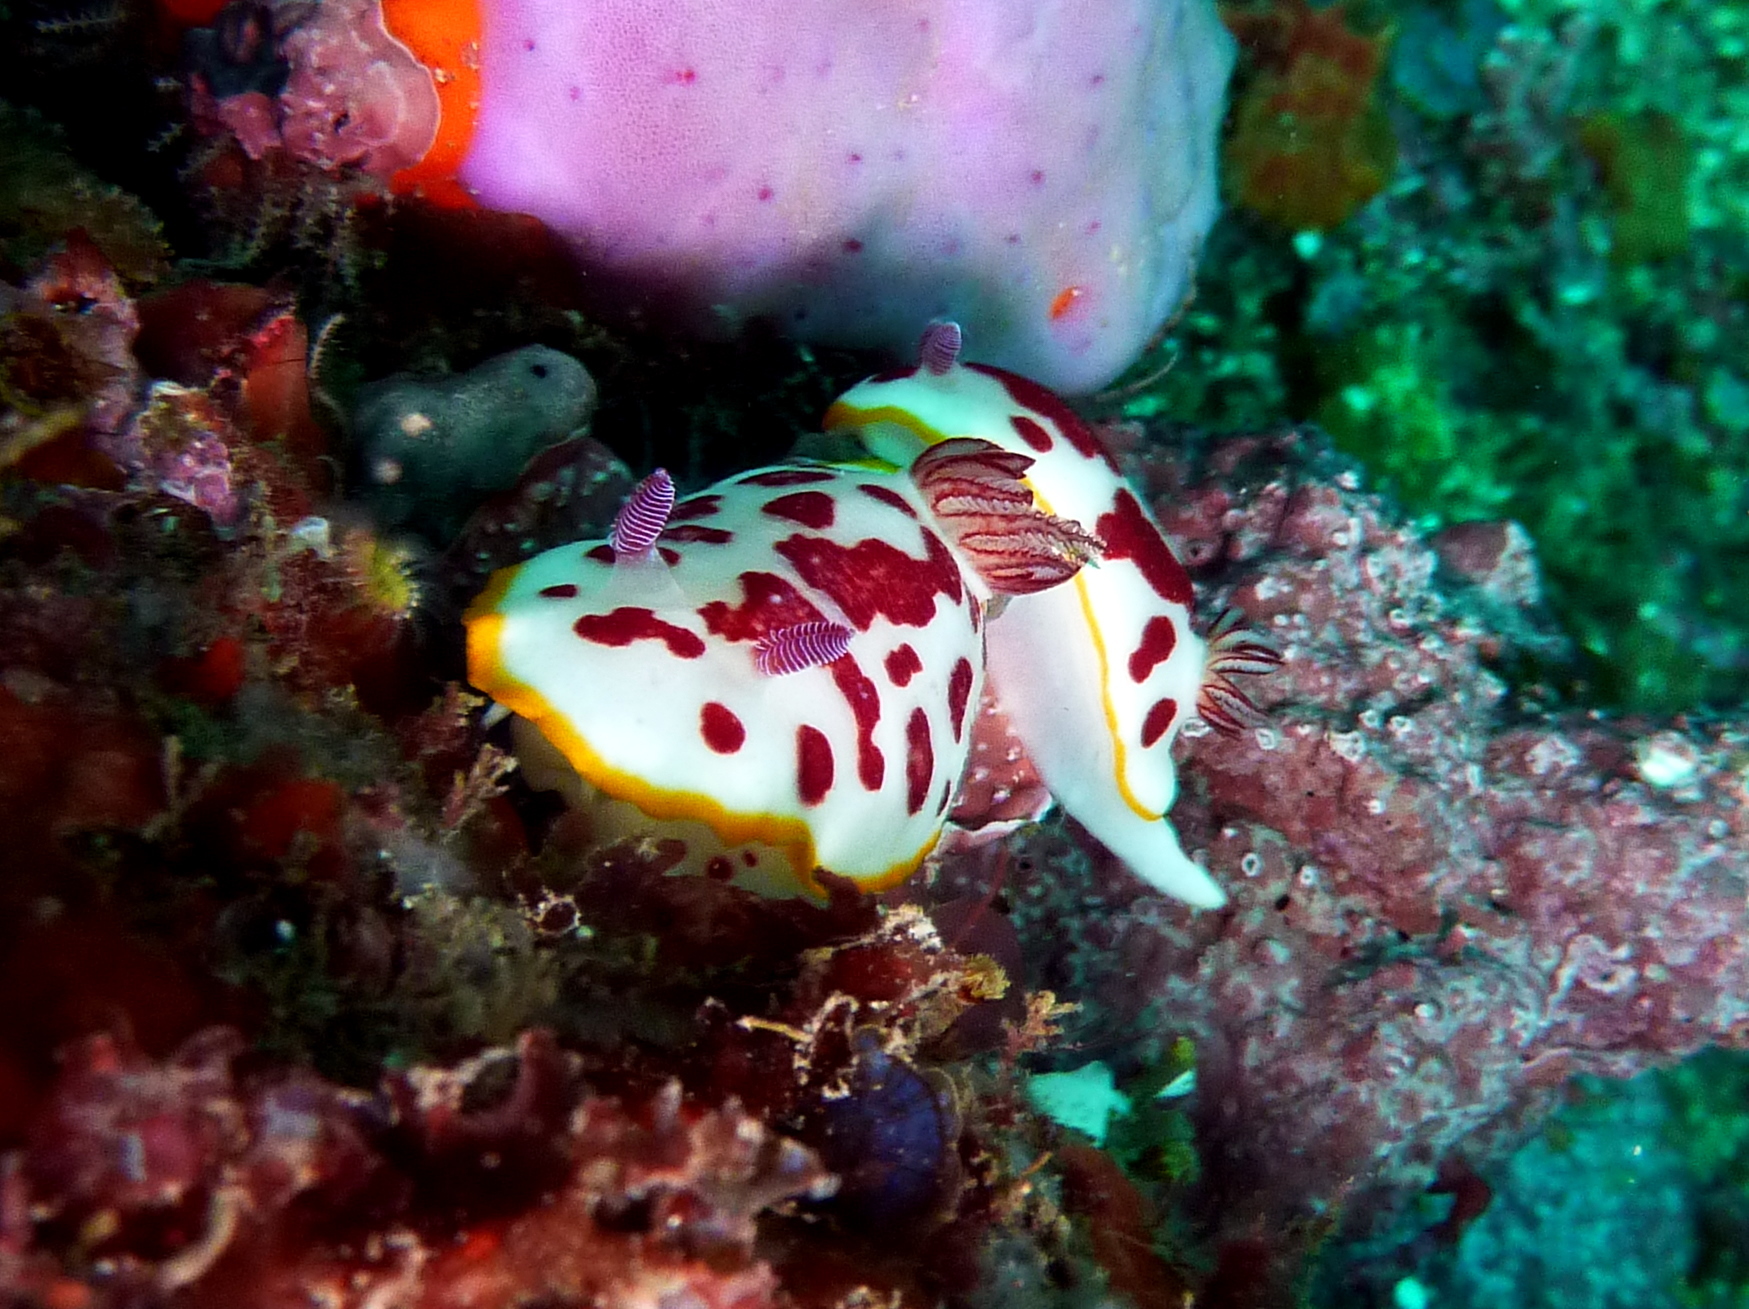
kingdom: Animalia
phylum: Mollusca
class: Gastropoda
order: Nudibranchia
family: Chromodorididae
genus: Goniobranchus
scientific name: Goniobranchus splendidus
